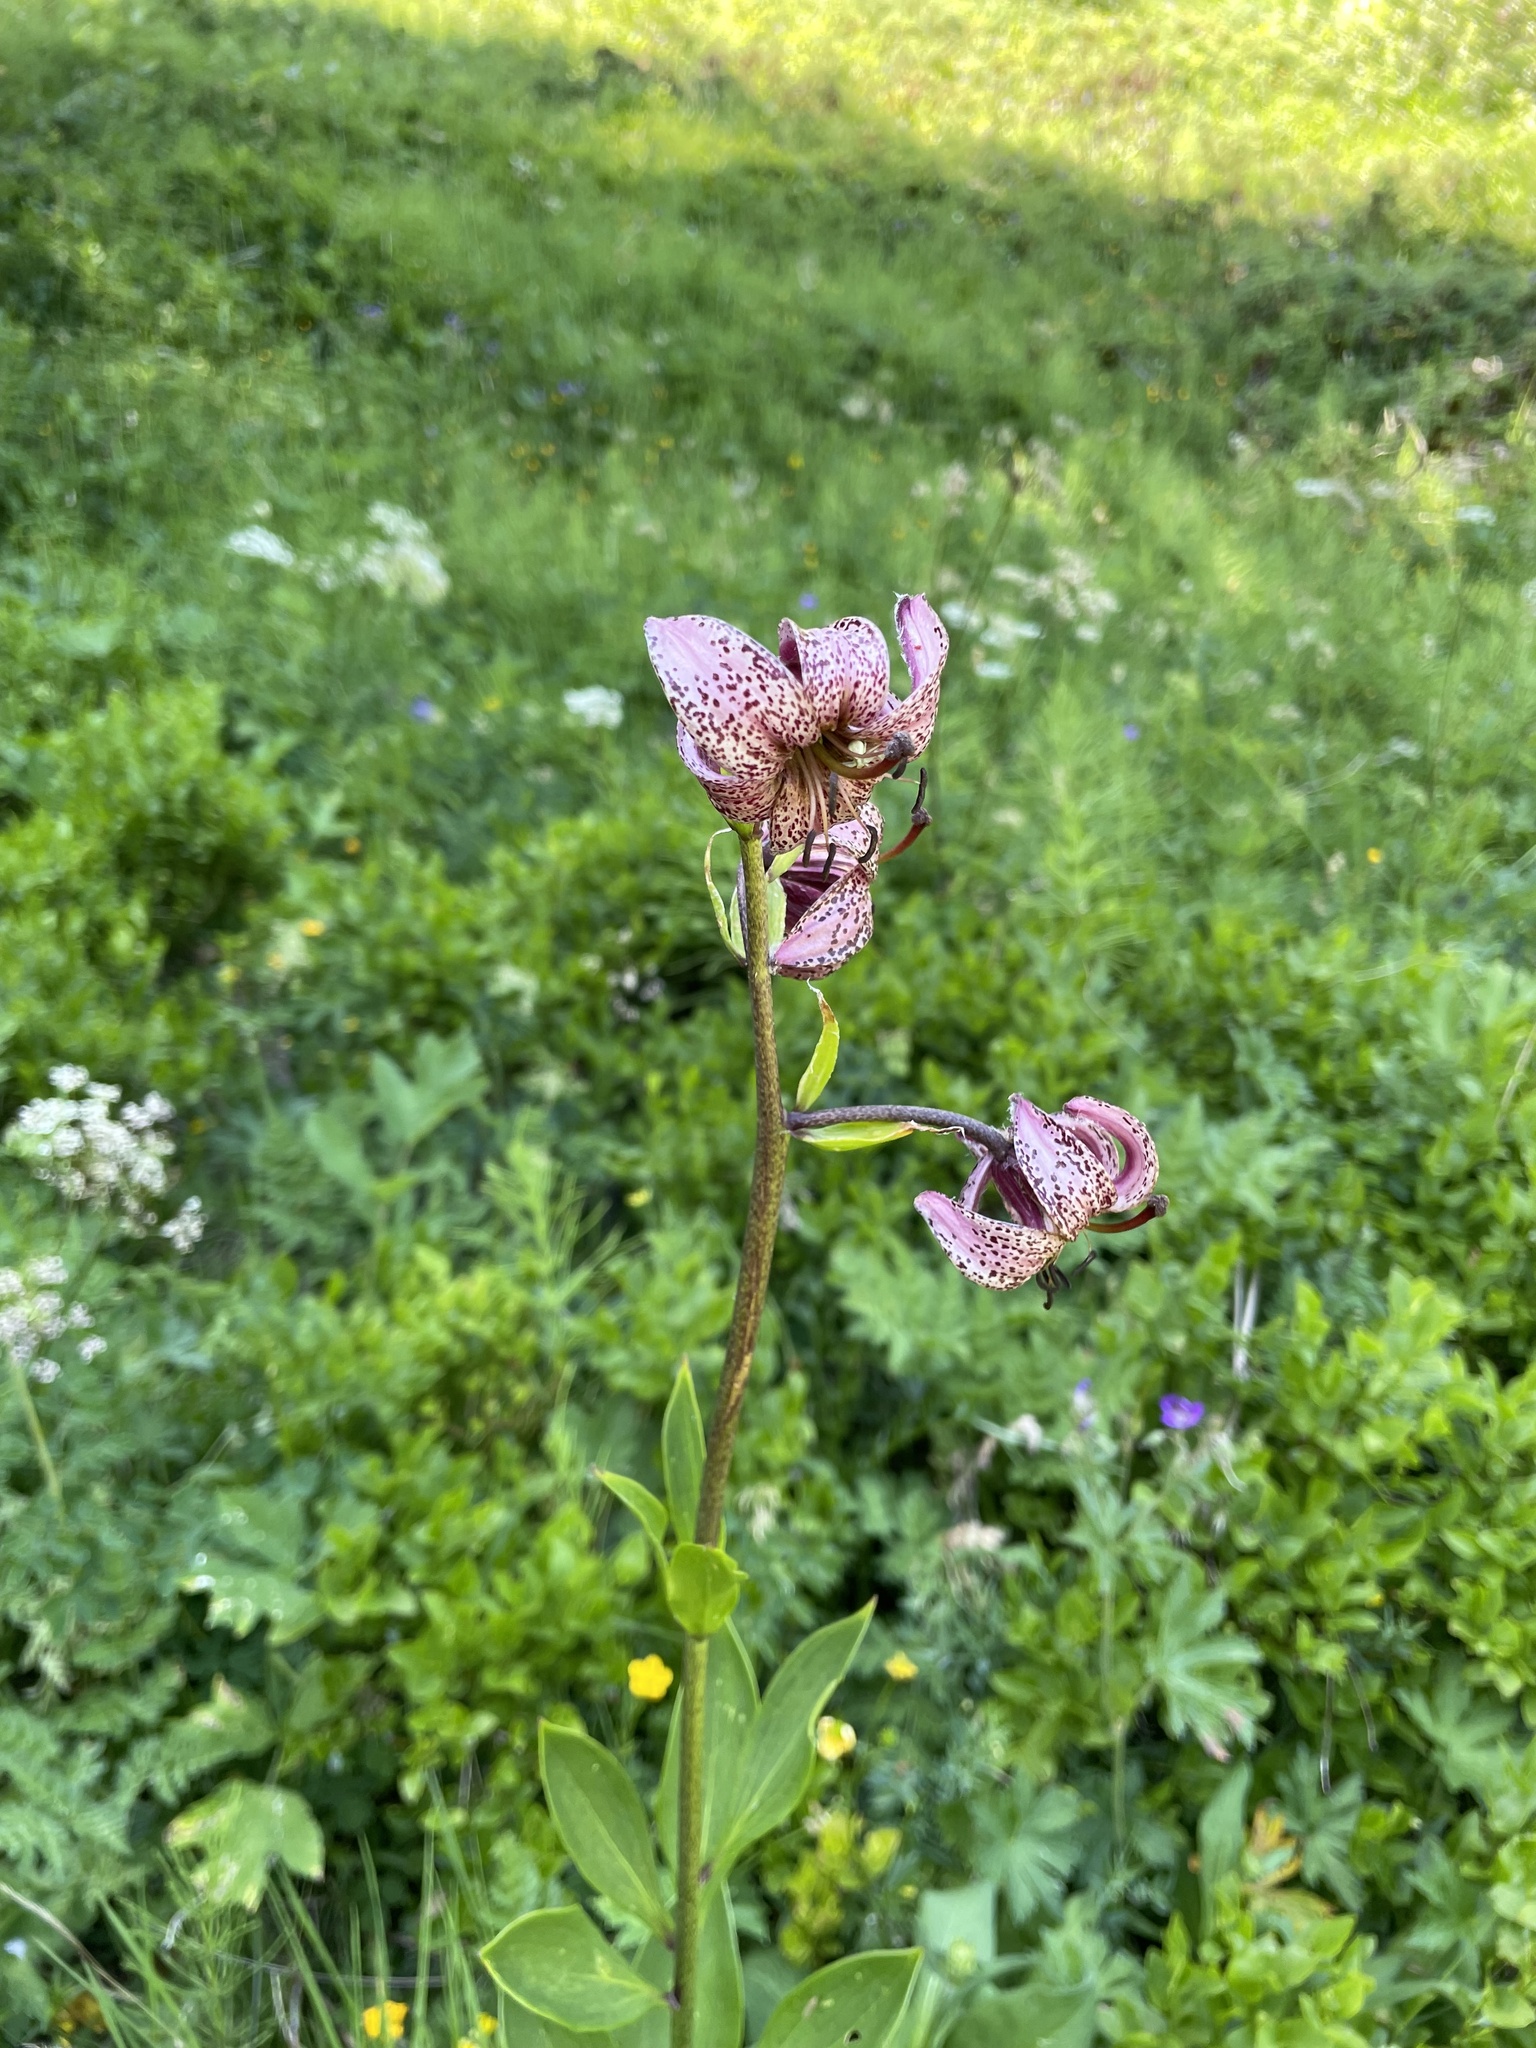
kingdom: Plantae
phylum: Tracheophyta
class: Liliopsida
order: Liliales
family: Liliaceae
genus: Lilium
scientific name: Lilium martagon
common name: Martagon lily
